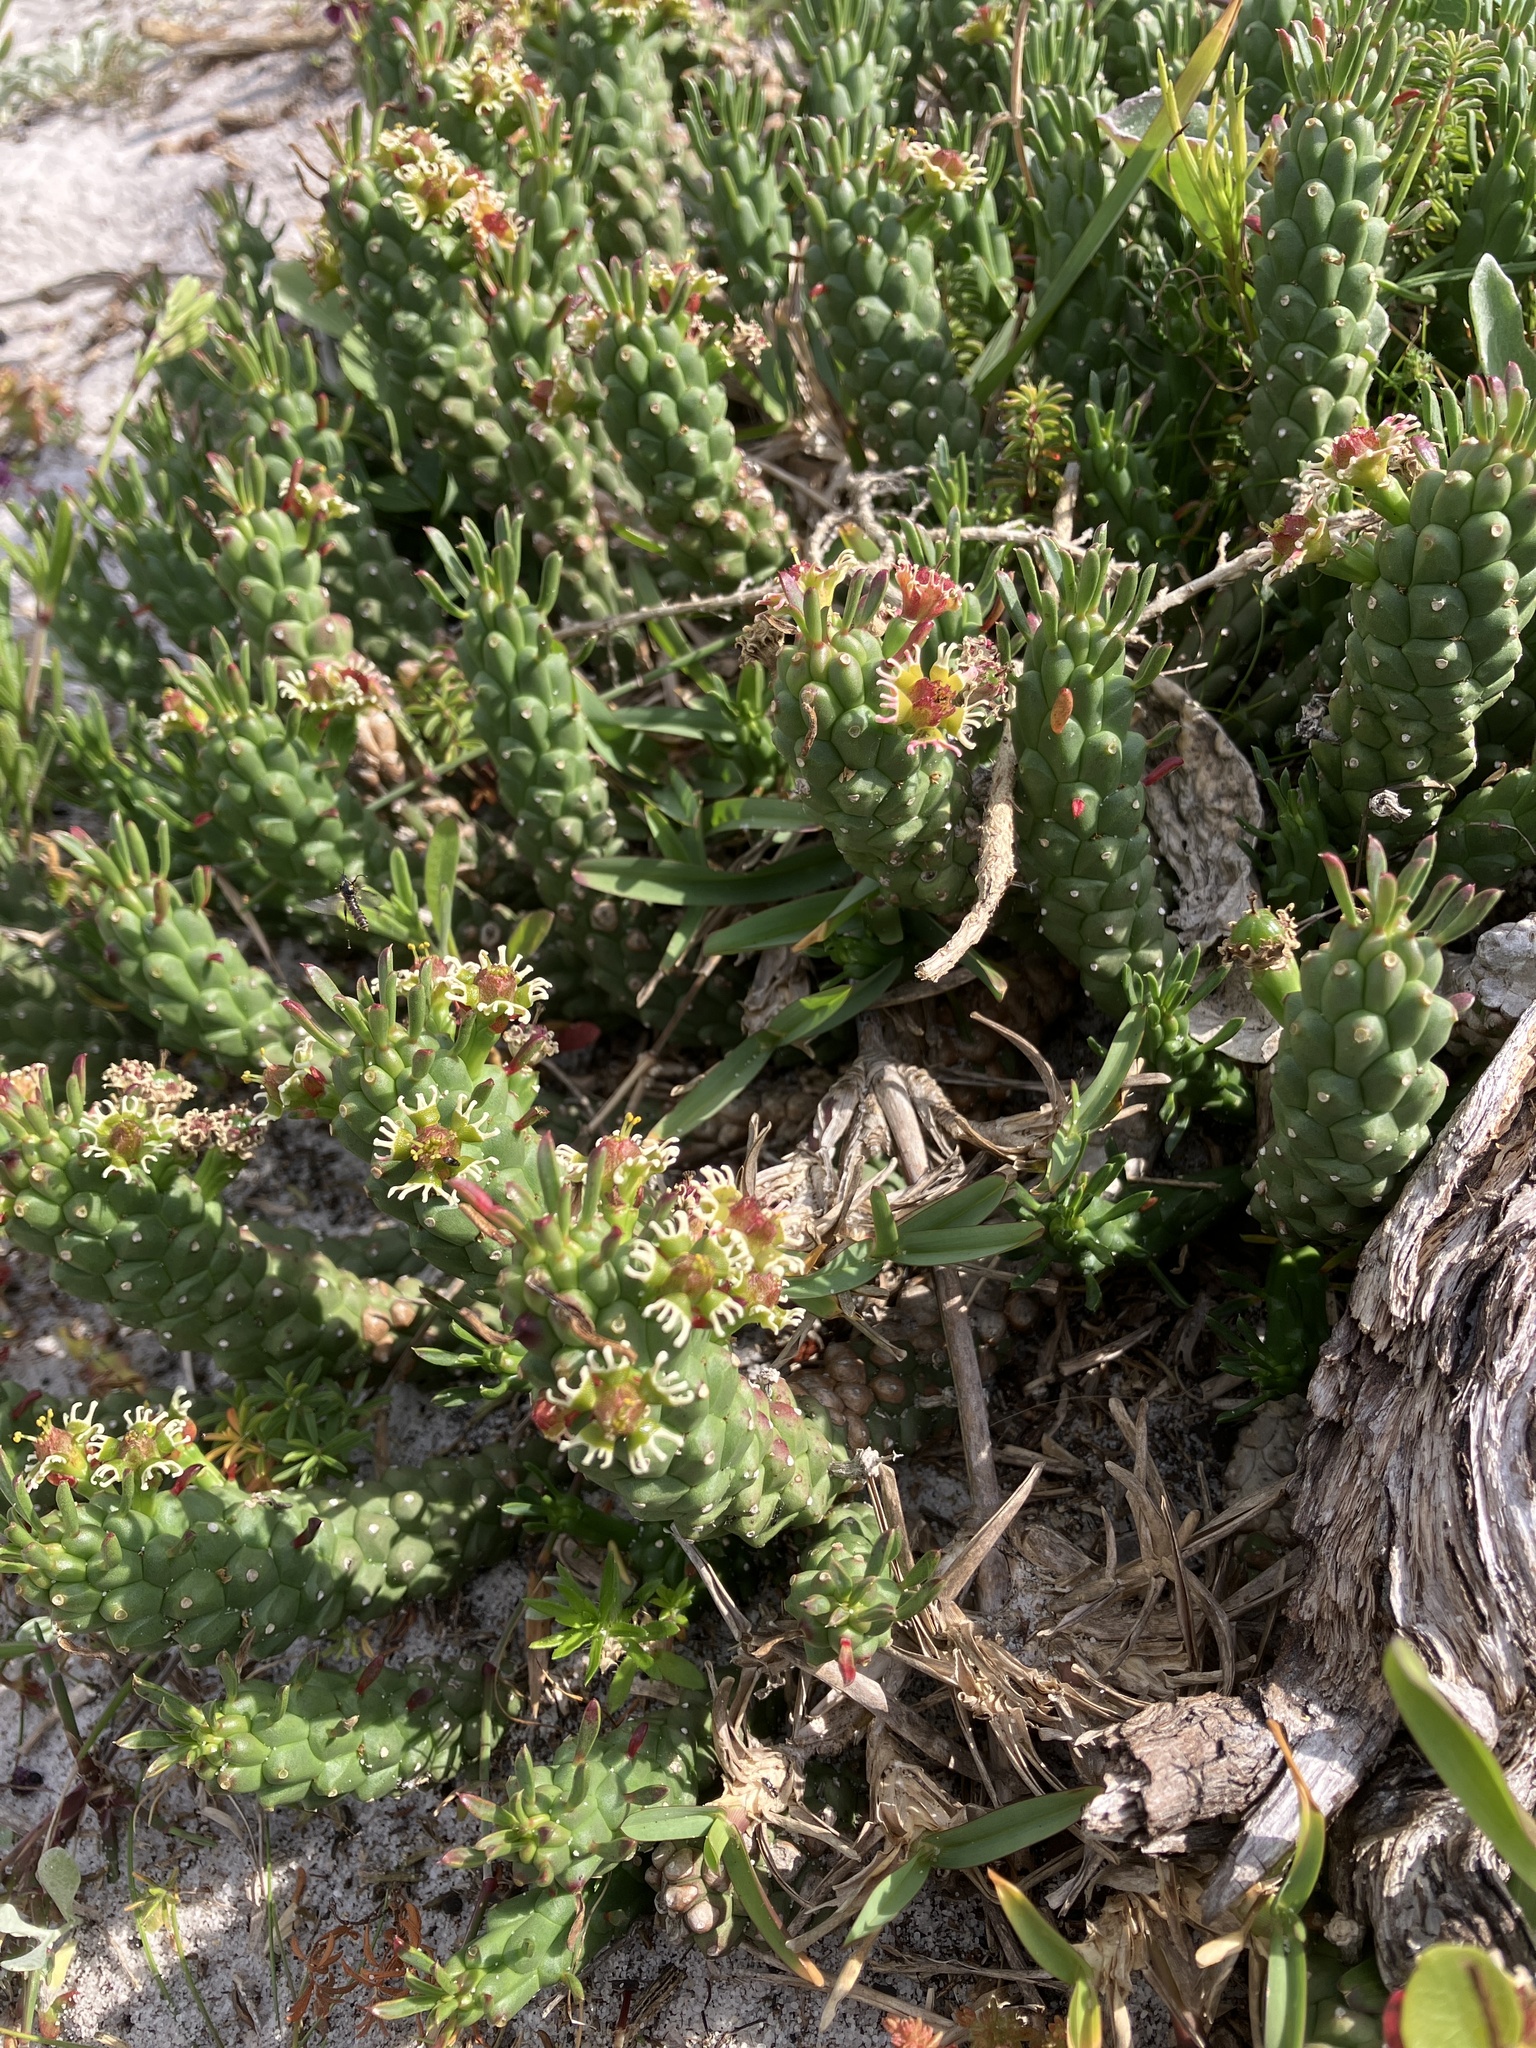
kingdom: Plantae
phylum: Tracheophyta
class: Magnoliopsida
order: Malpighiales
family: Euphorbiaceae
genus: Euphorbia
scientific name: Euphorbia caput-medusae
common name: Medusa's-head
